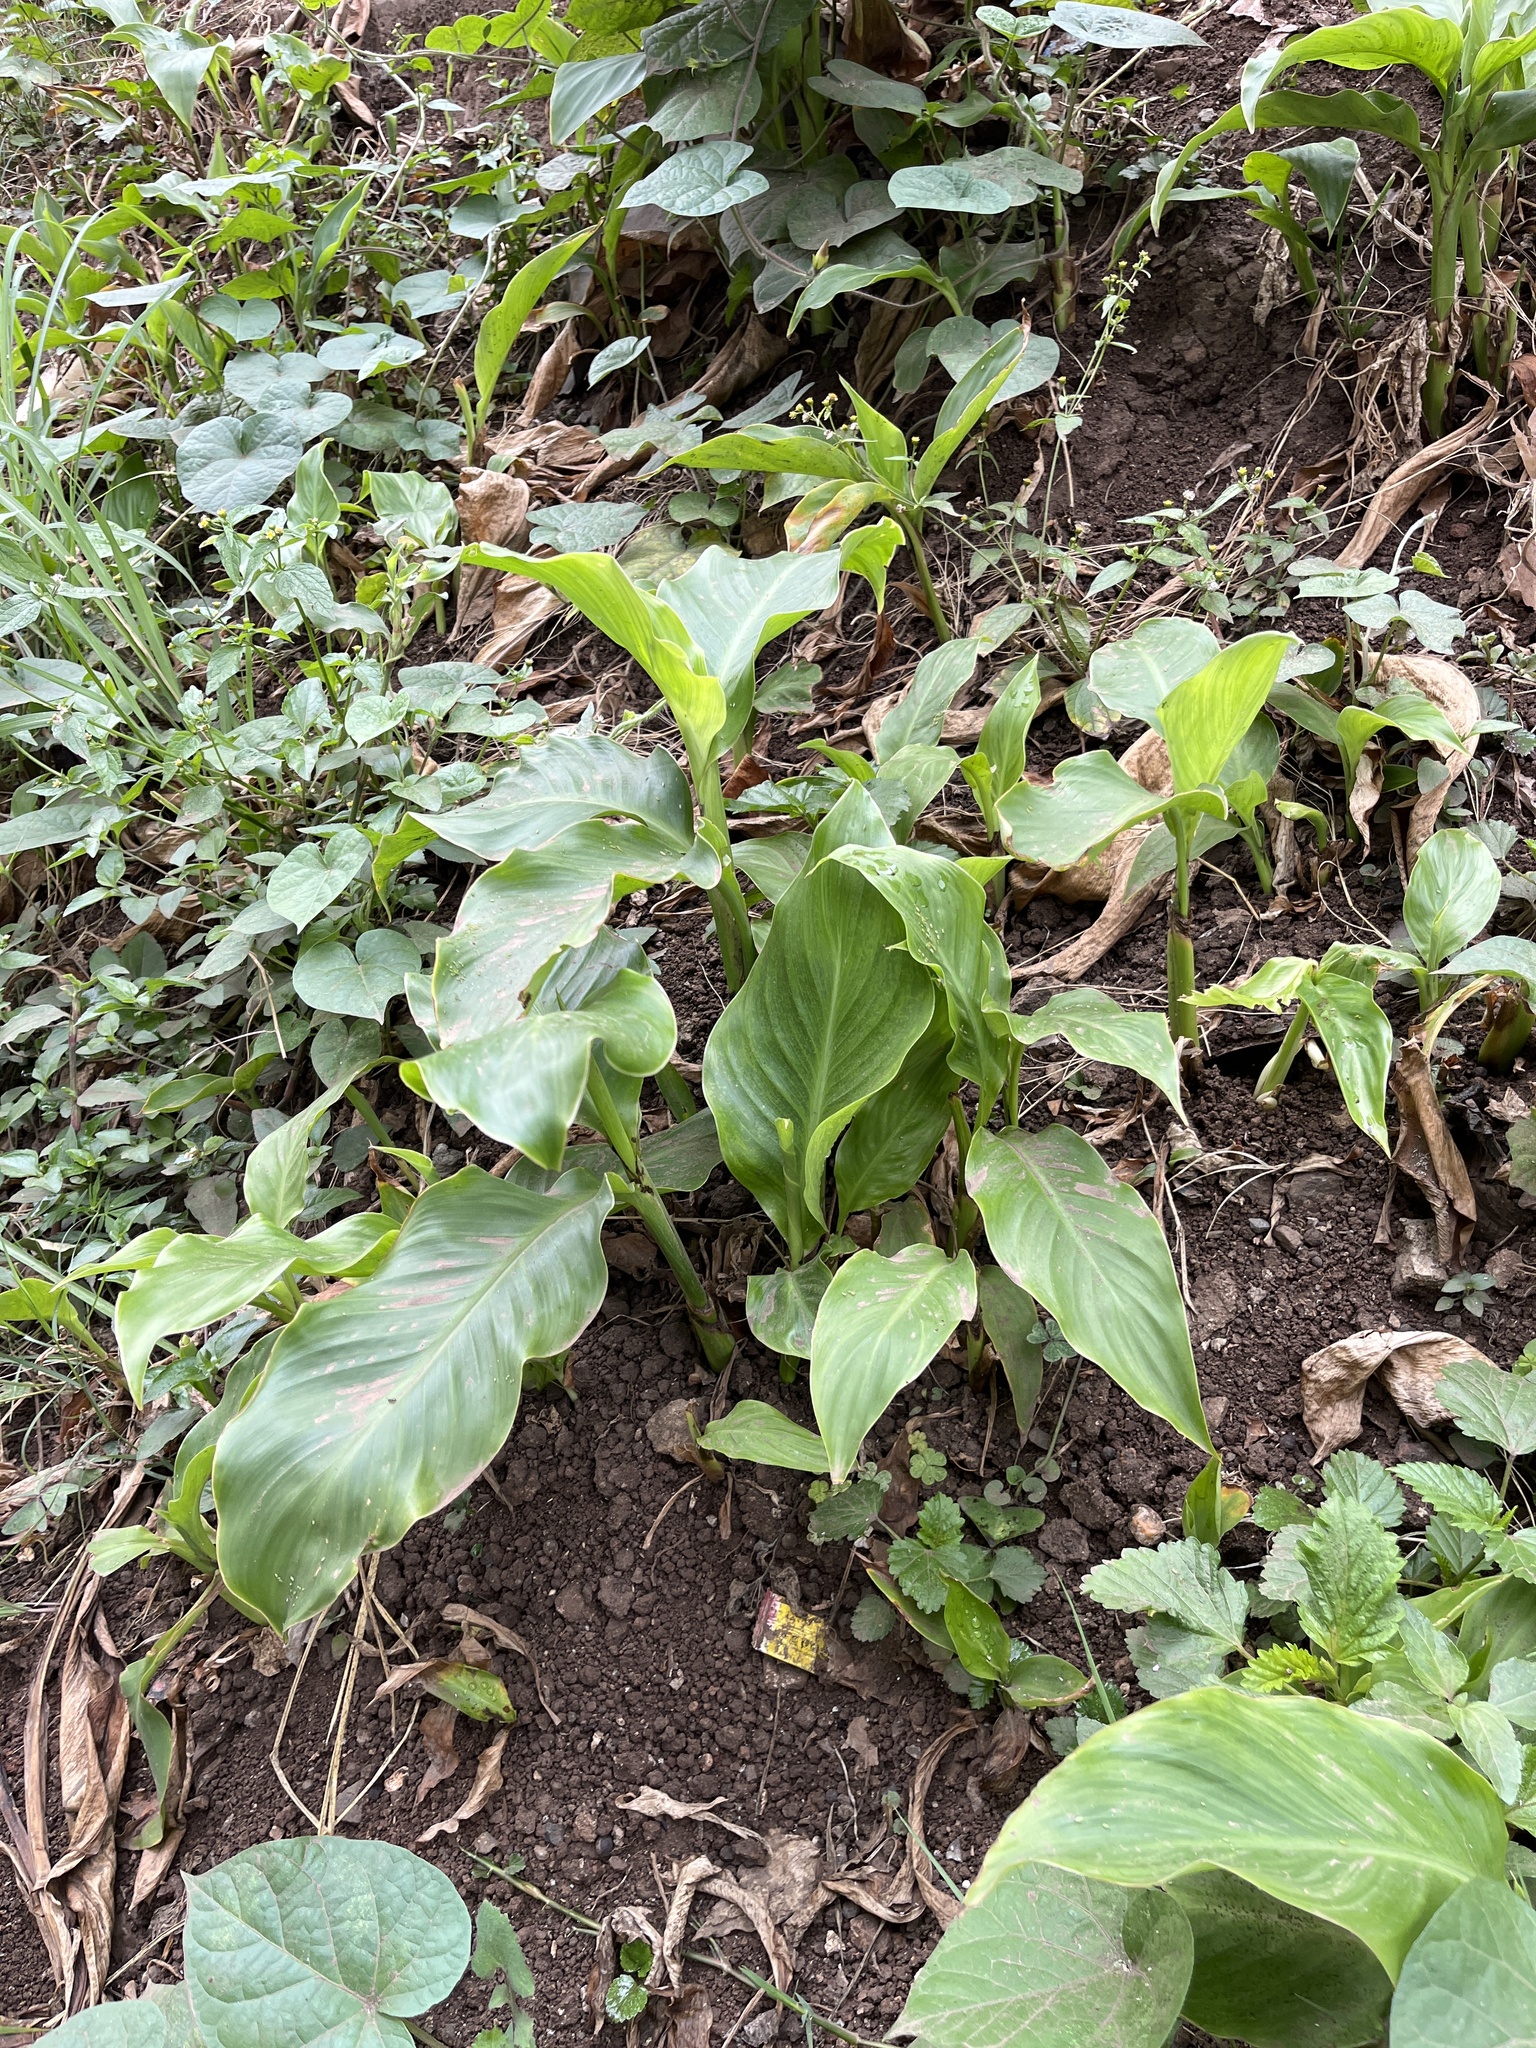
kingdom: Plantae
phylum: Tracheophyta
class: Liliopsida
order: Zingiberales
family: Cannaceae
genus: Canna
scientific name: Canna indica
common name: Indian shot
